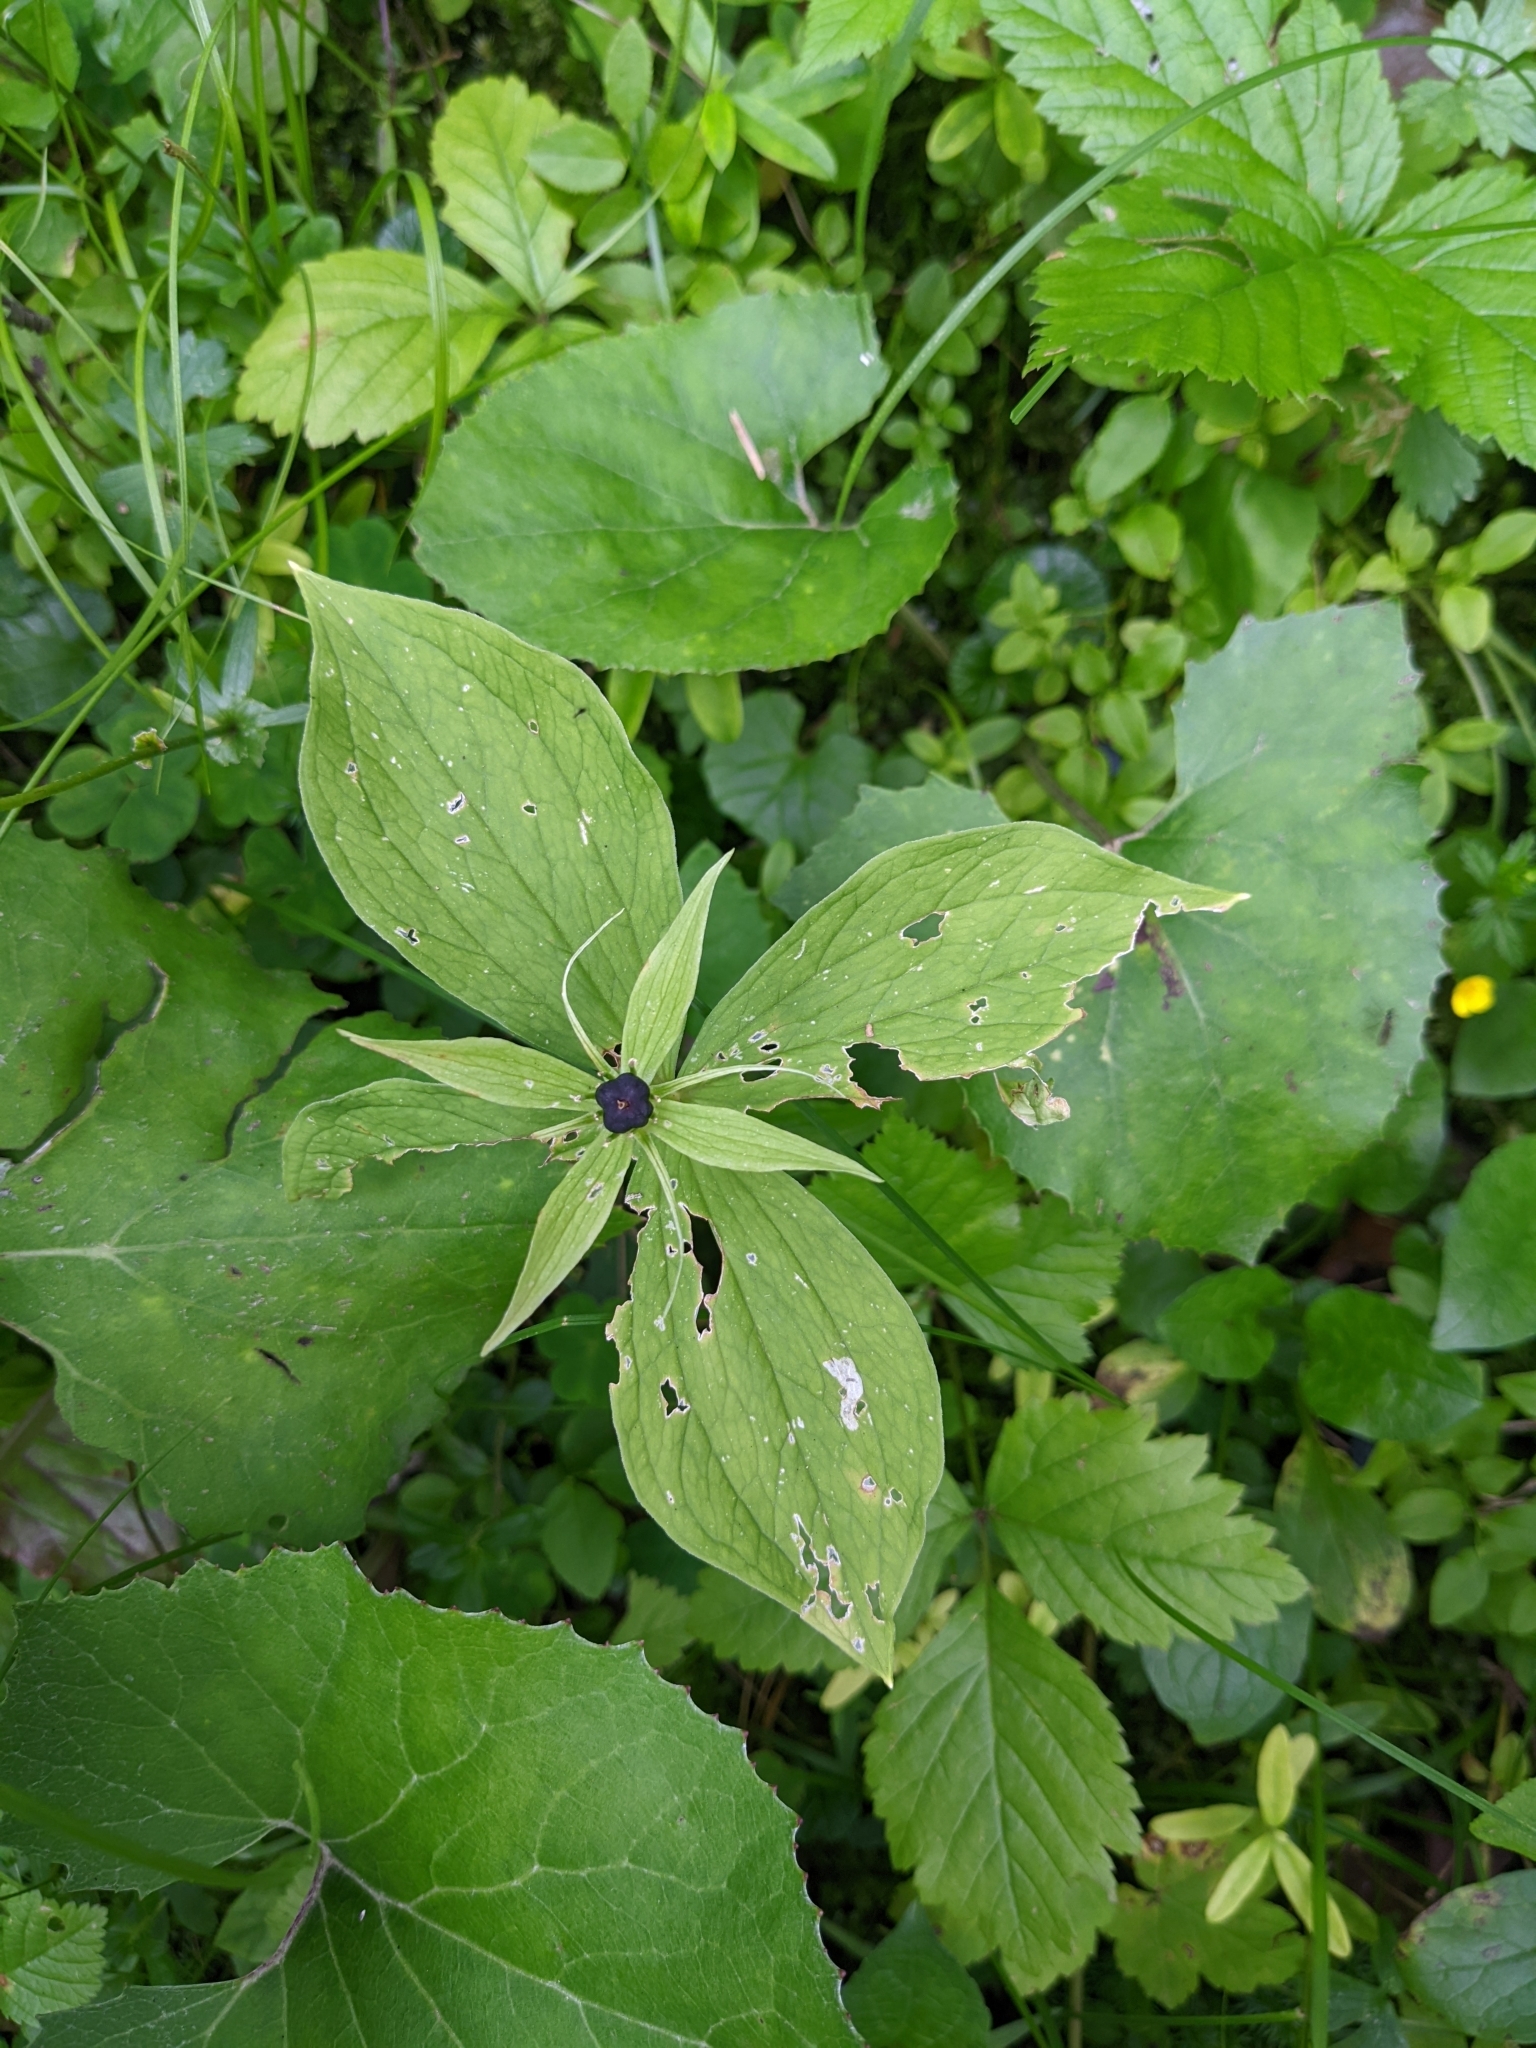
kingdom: Plantae
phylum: Tracheophyta
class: Liliopsida
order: Liliales
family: Melanthiaceae
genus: Paris
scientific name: Paris quadrifolia
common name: Herb-paris
